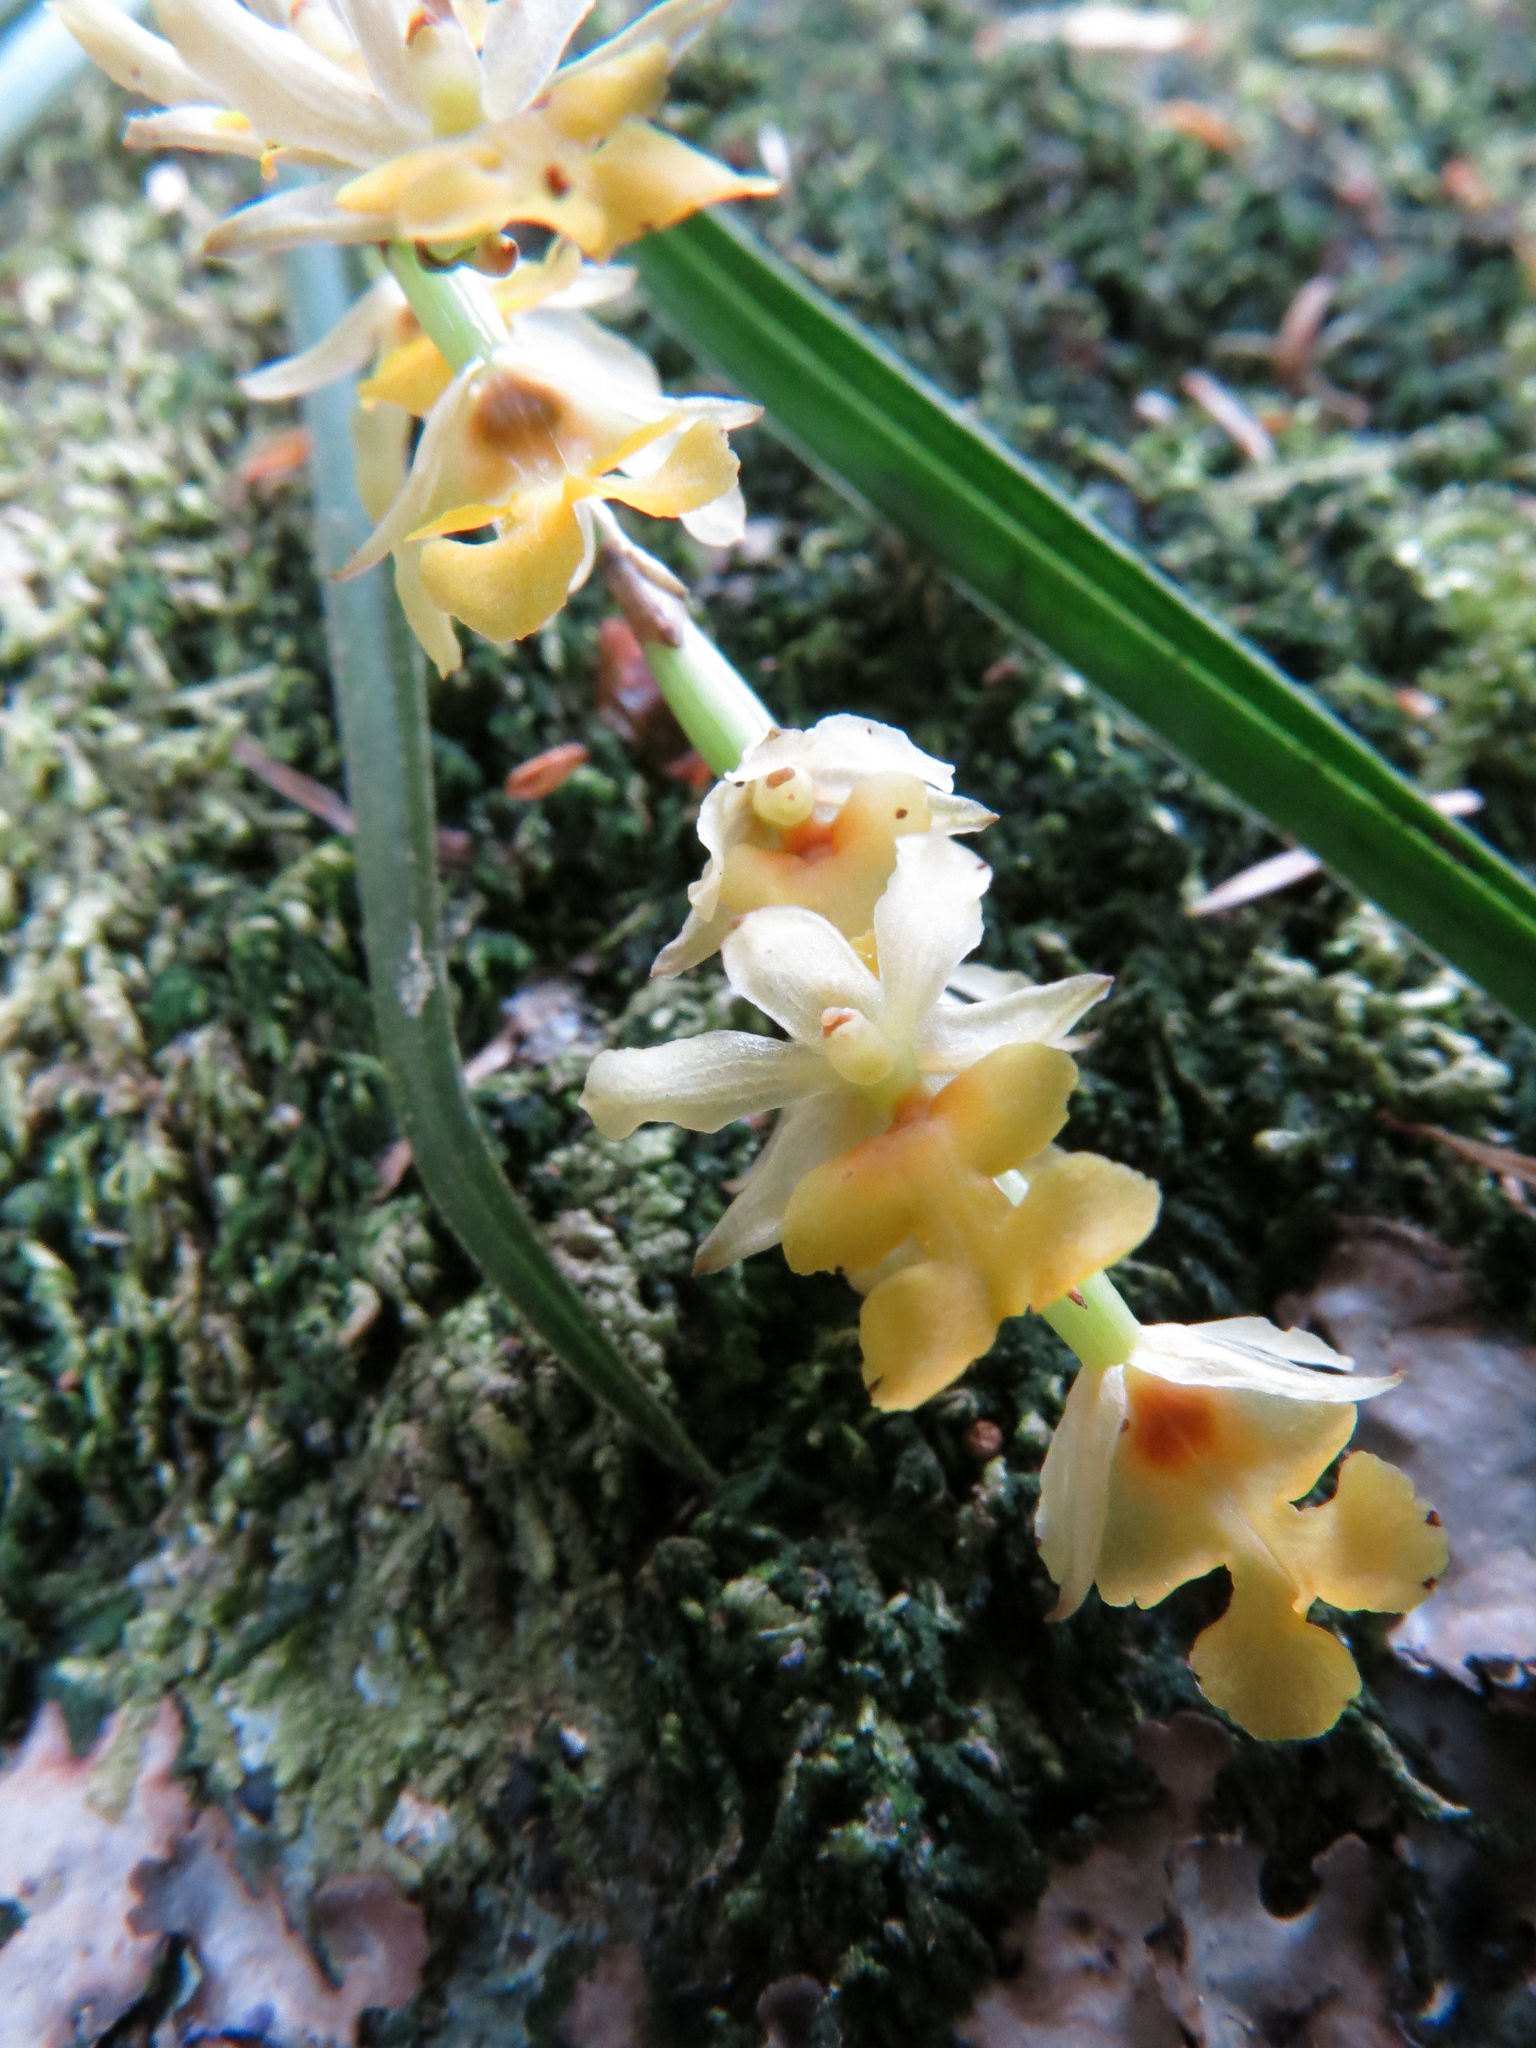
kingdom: Plantae
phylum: Tracheophyta
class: Liliopsida
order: Asparagales
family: Orchidaceae
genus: Earina
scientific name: Earina mucronata
